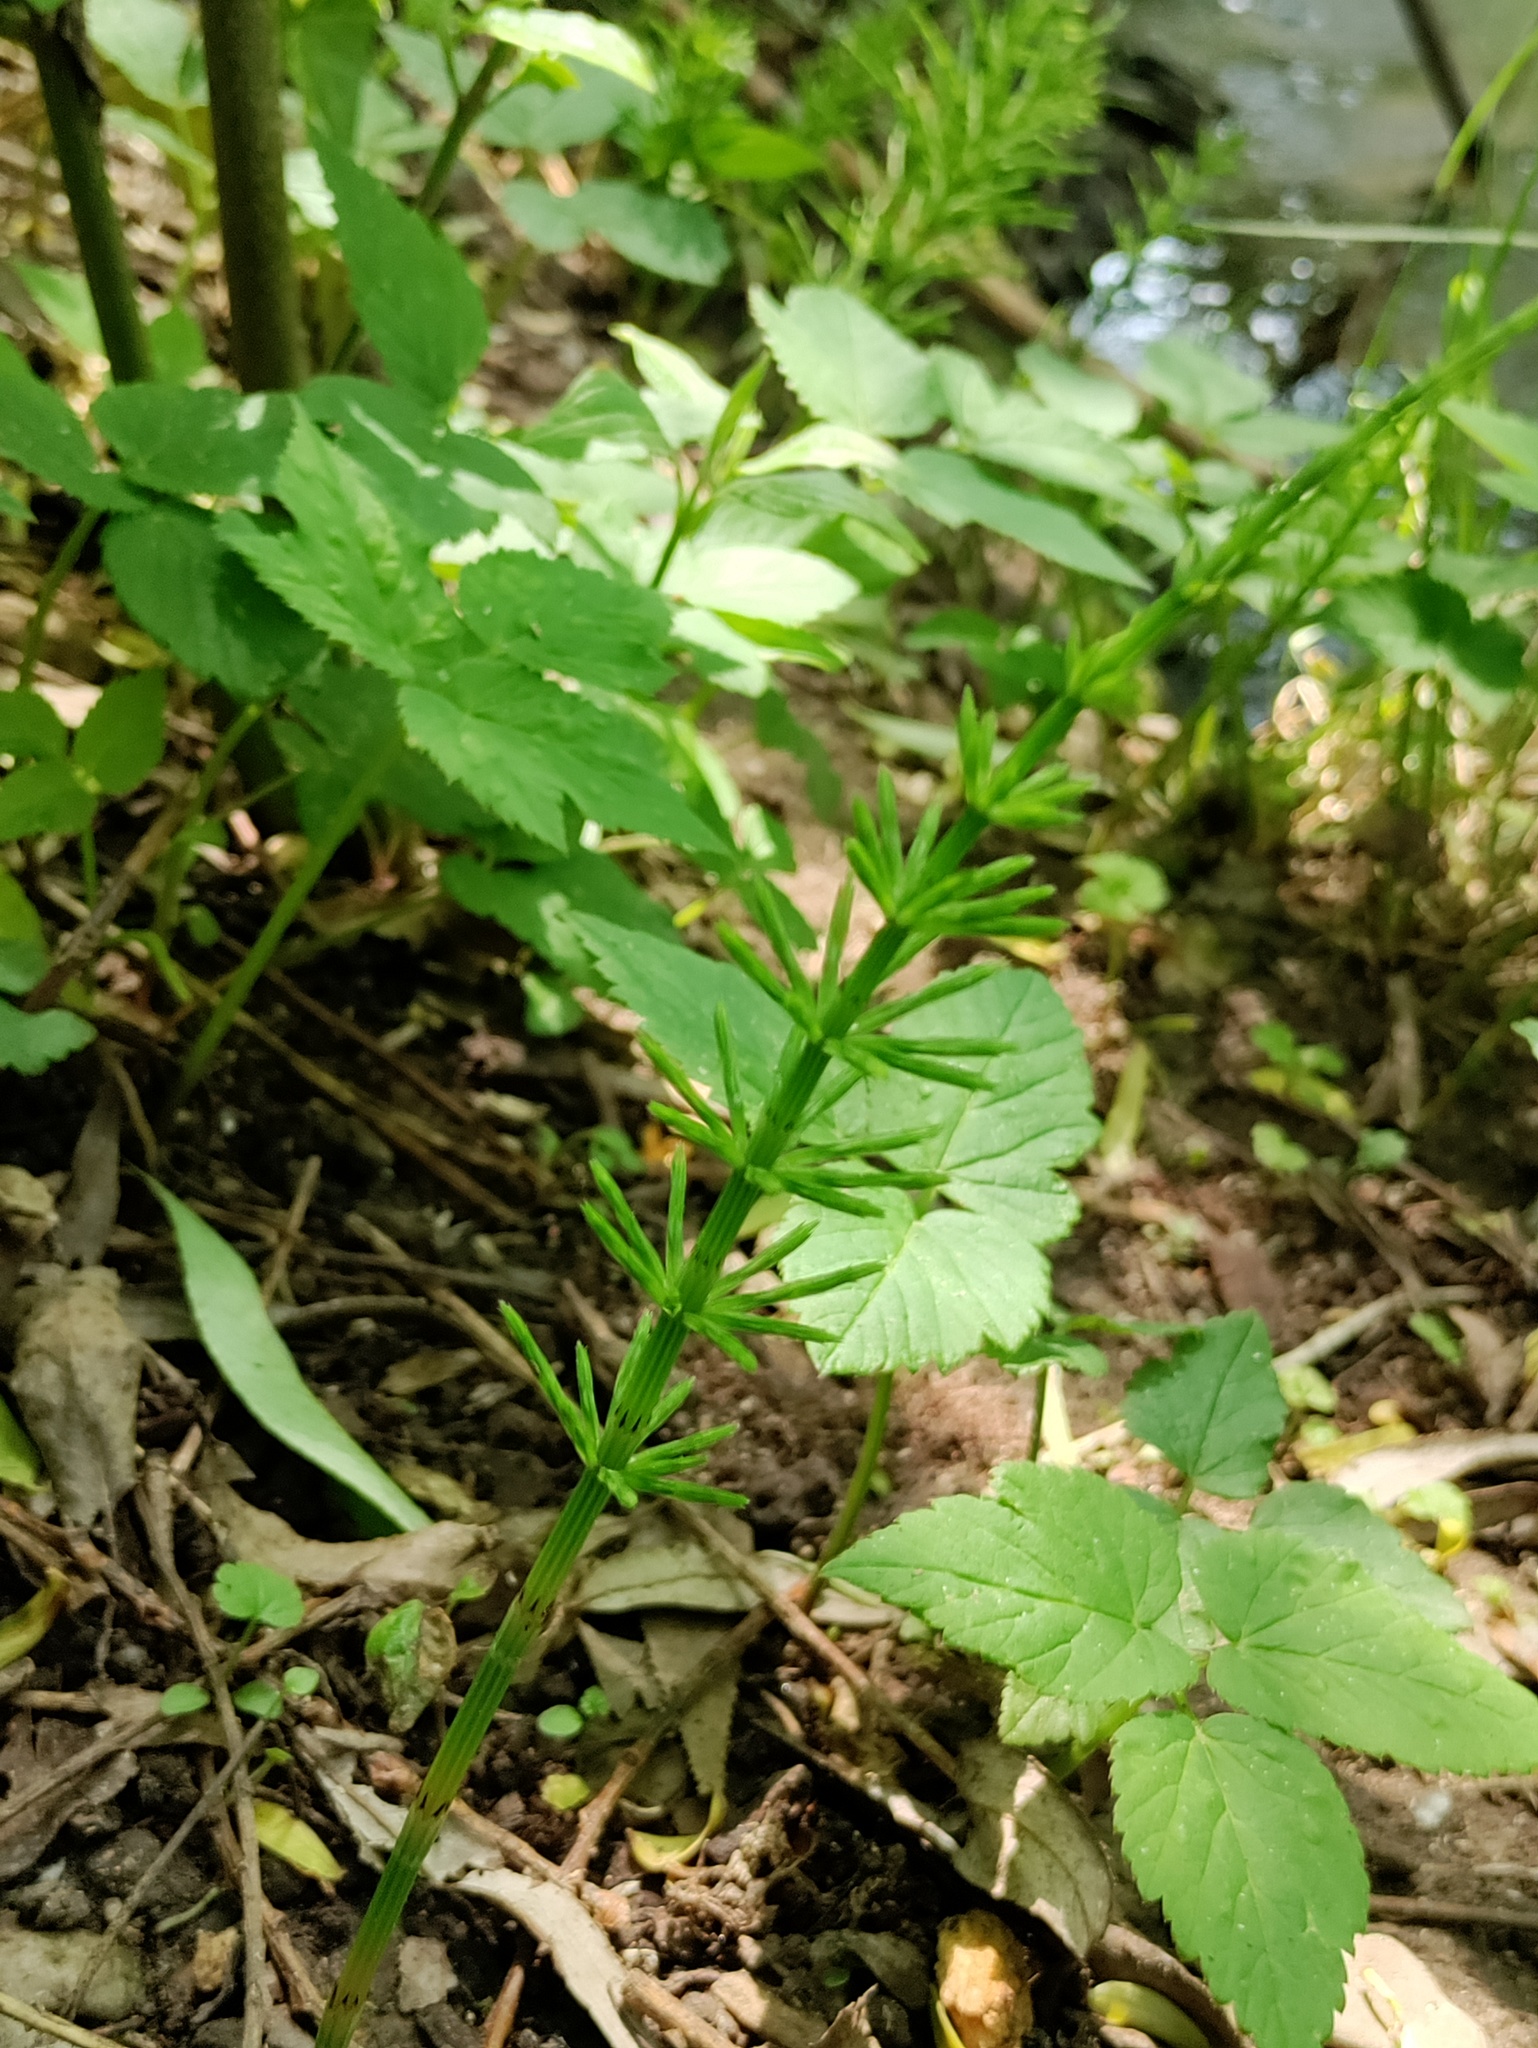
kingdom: Plantae
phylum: Tracheophyta
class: Polypodiopsida
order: Equisetales
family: Equisetaceae
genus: Equisetum
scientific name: Equisetum arvense
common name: Field horsetail
